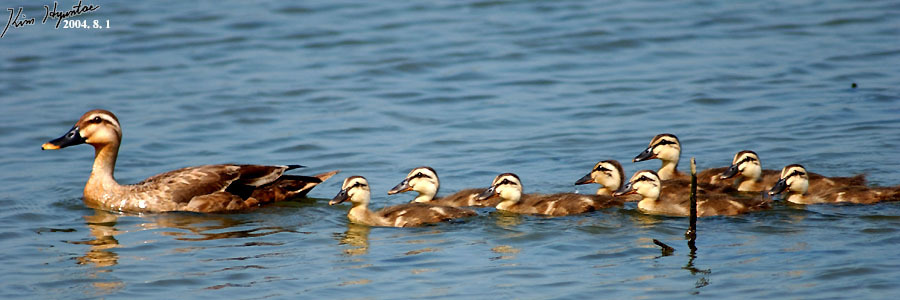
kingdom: Animalia
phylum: Chordata
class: Aves
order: Anseriformes
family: Anatidae
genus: Anas
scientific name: Anas zonorhyncha
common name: Eastern spot-billed duck
